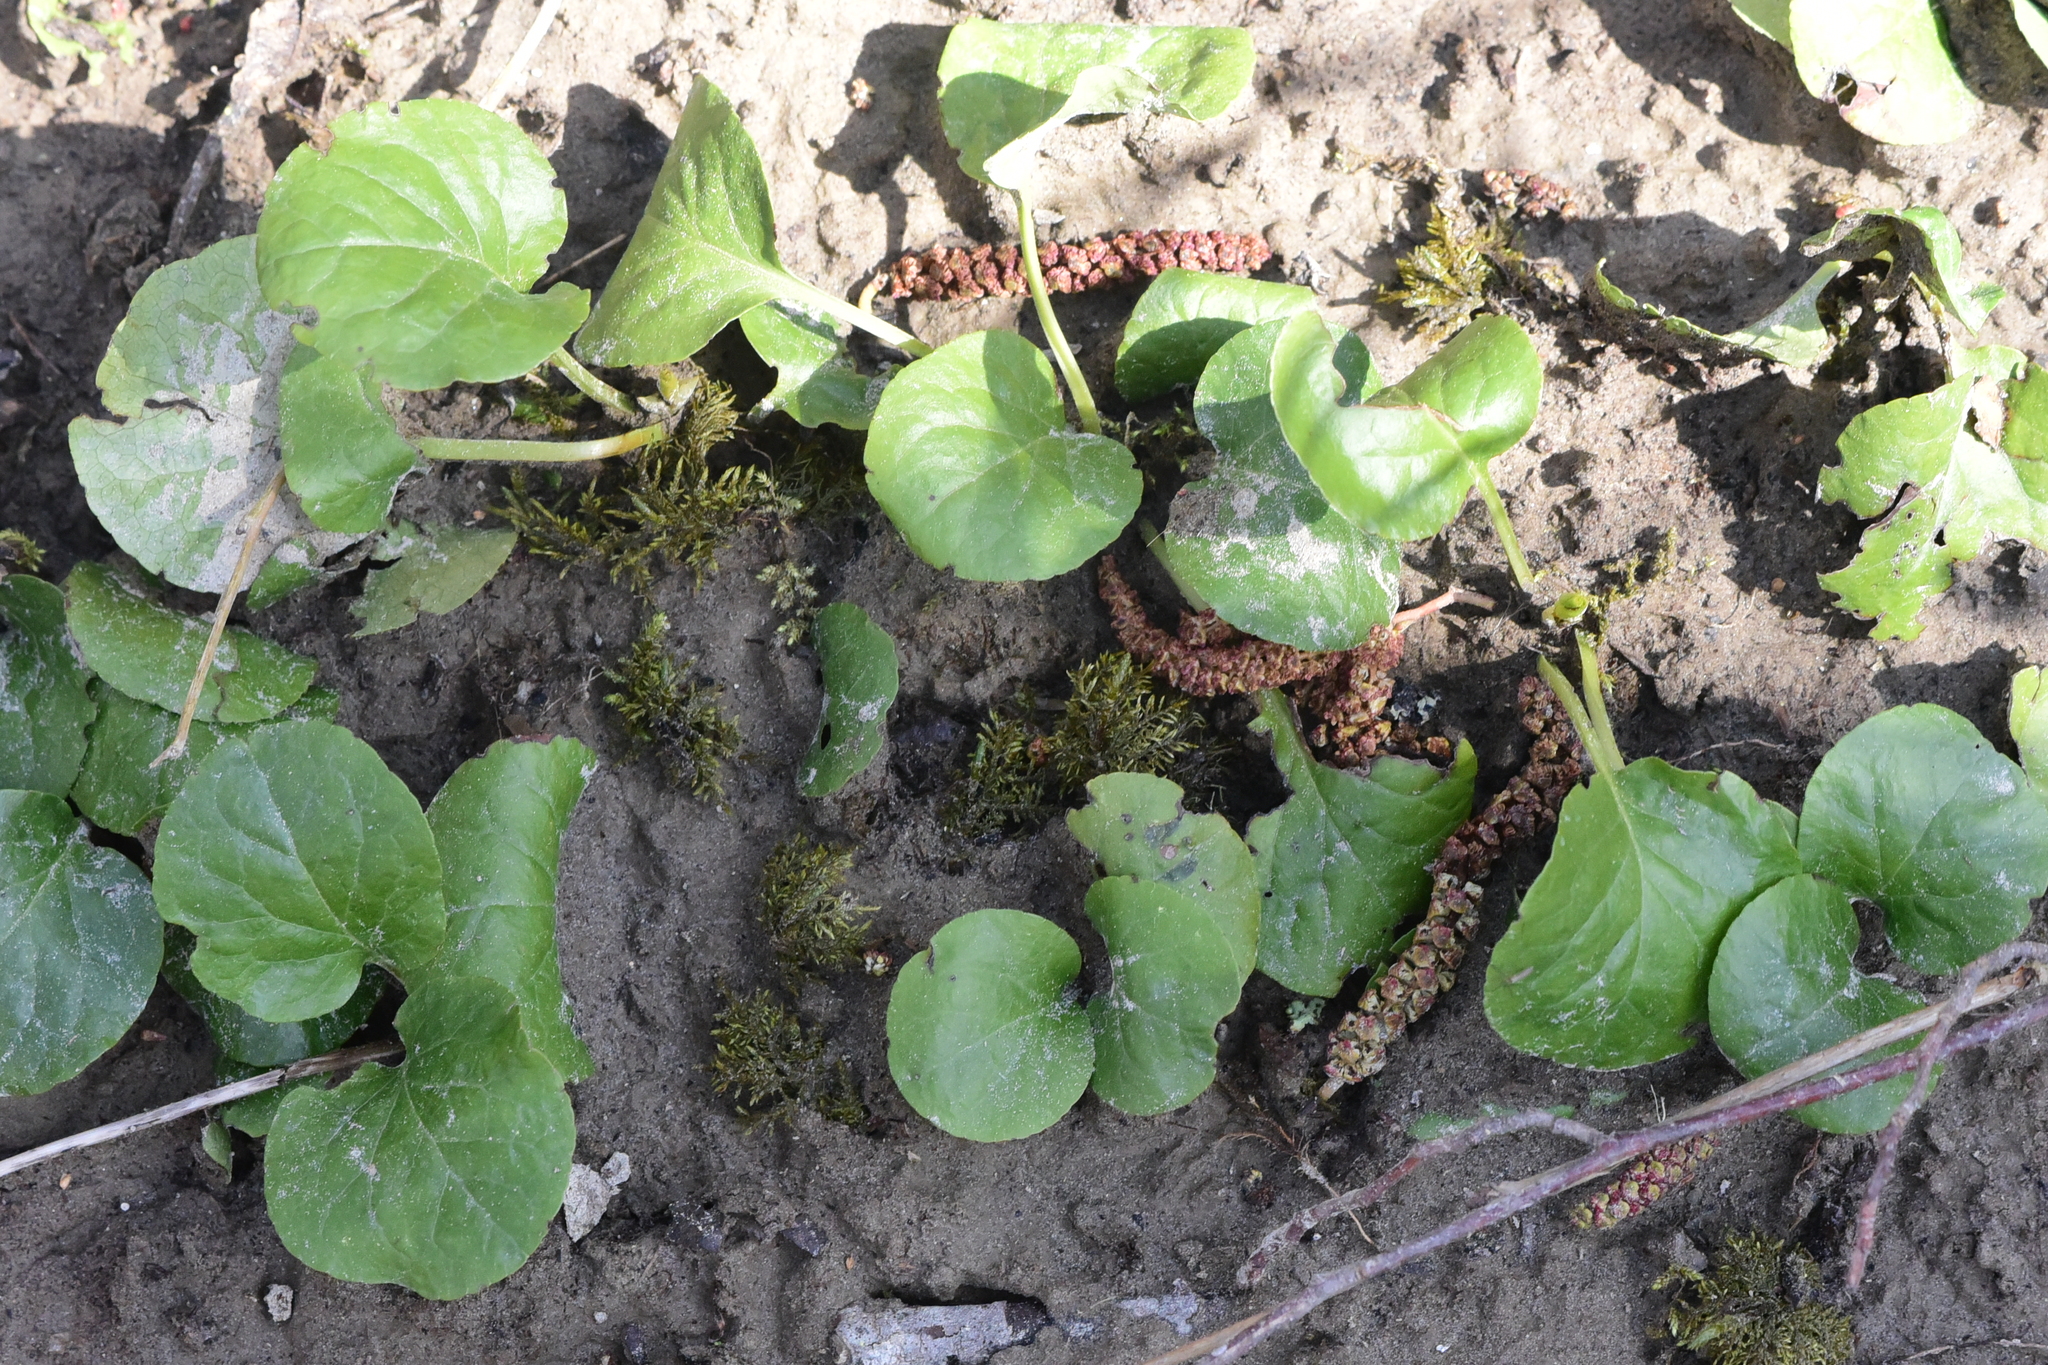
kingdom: Plantae
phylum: Tracheophyta
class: Magnoliopsida
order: Ericales
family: Ericaceae
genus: Pyrola
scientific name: Pyrola asarifolia
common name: Bog wintergreen
